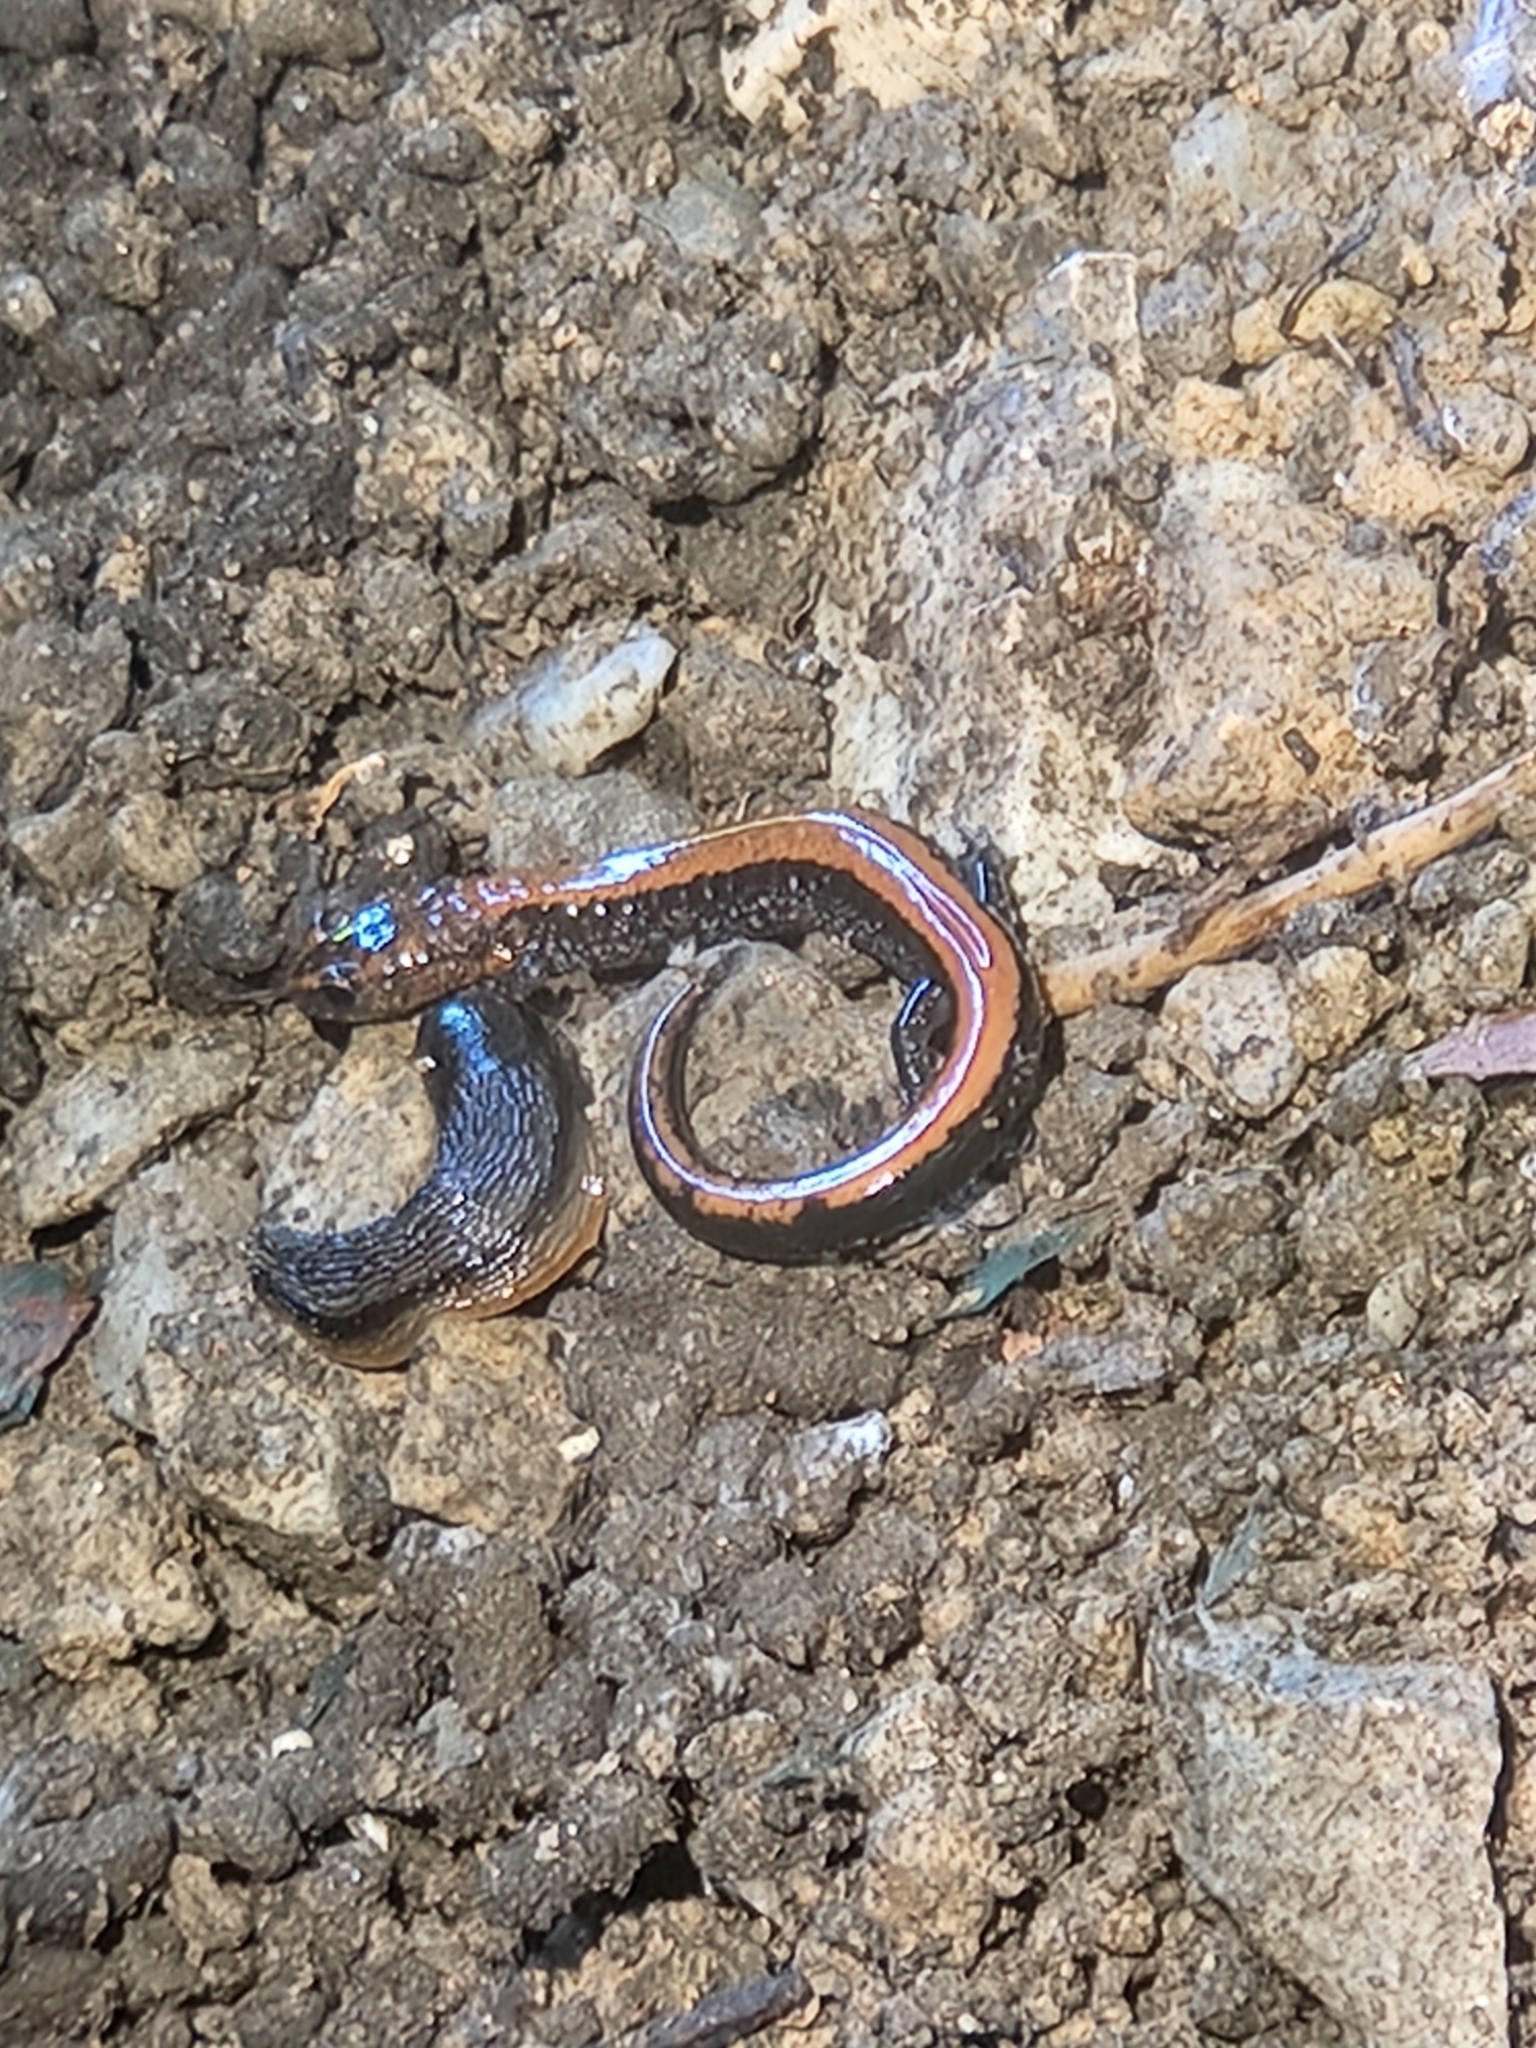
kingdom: Animalia
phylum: Chordata
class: Amphibia
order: Caudata
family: Plethodontidae
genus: Plethodon
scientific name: Plethodon cinereus
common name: Redback salamander
